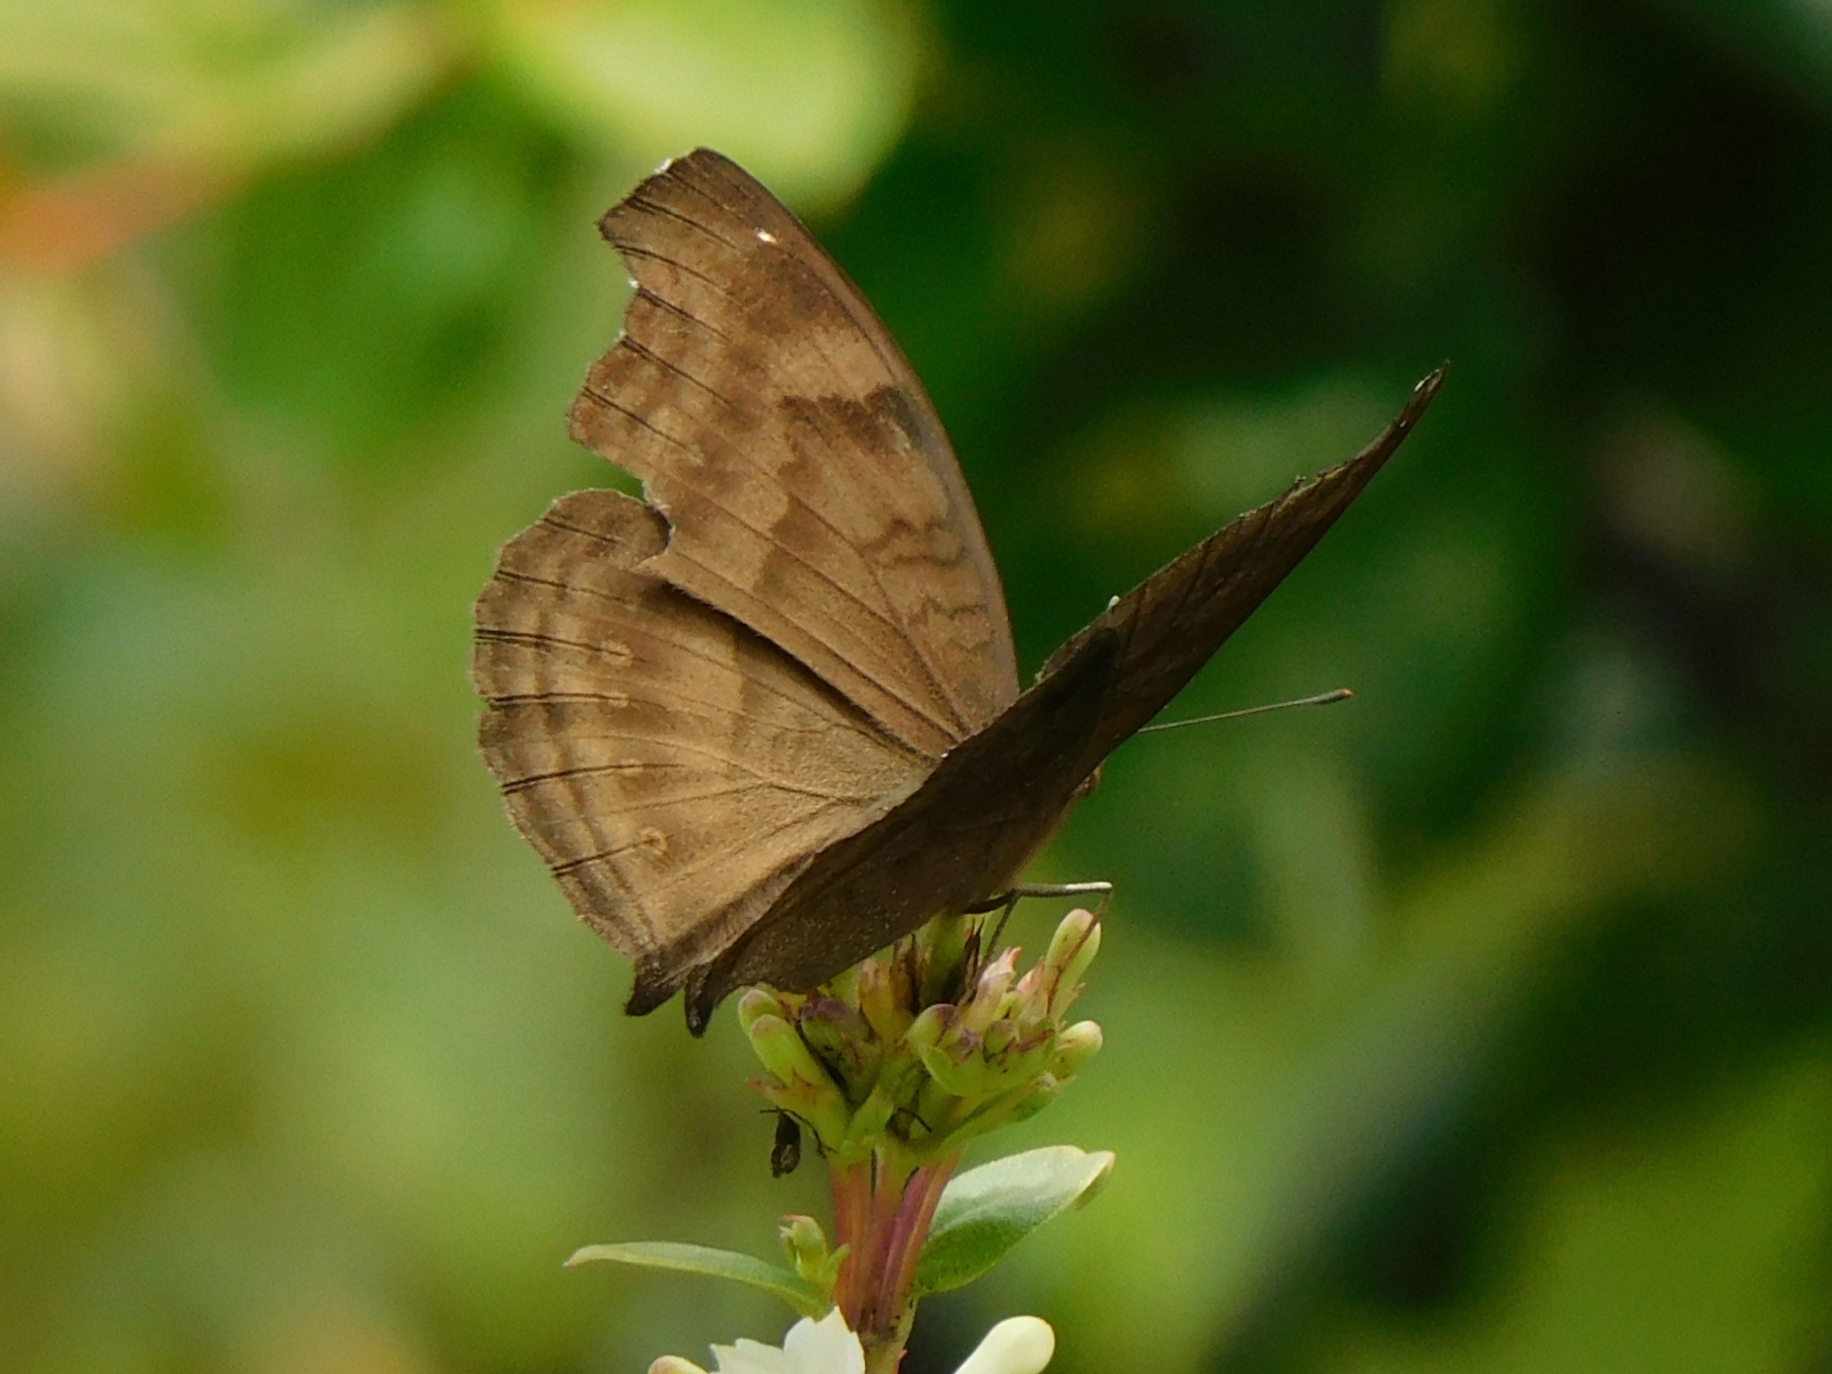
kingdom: Animalia
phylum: Arthropoda
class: Insecta
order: Lepidoptera
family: Nymphalidae
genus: Junonia
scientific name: Junonia iphita
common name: Chocolate pansy
